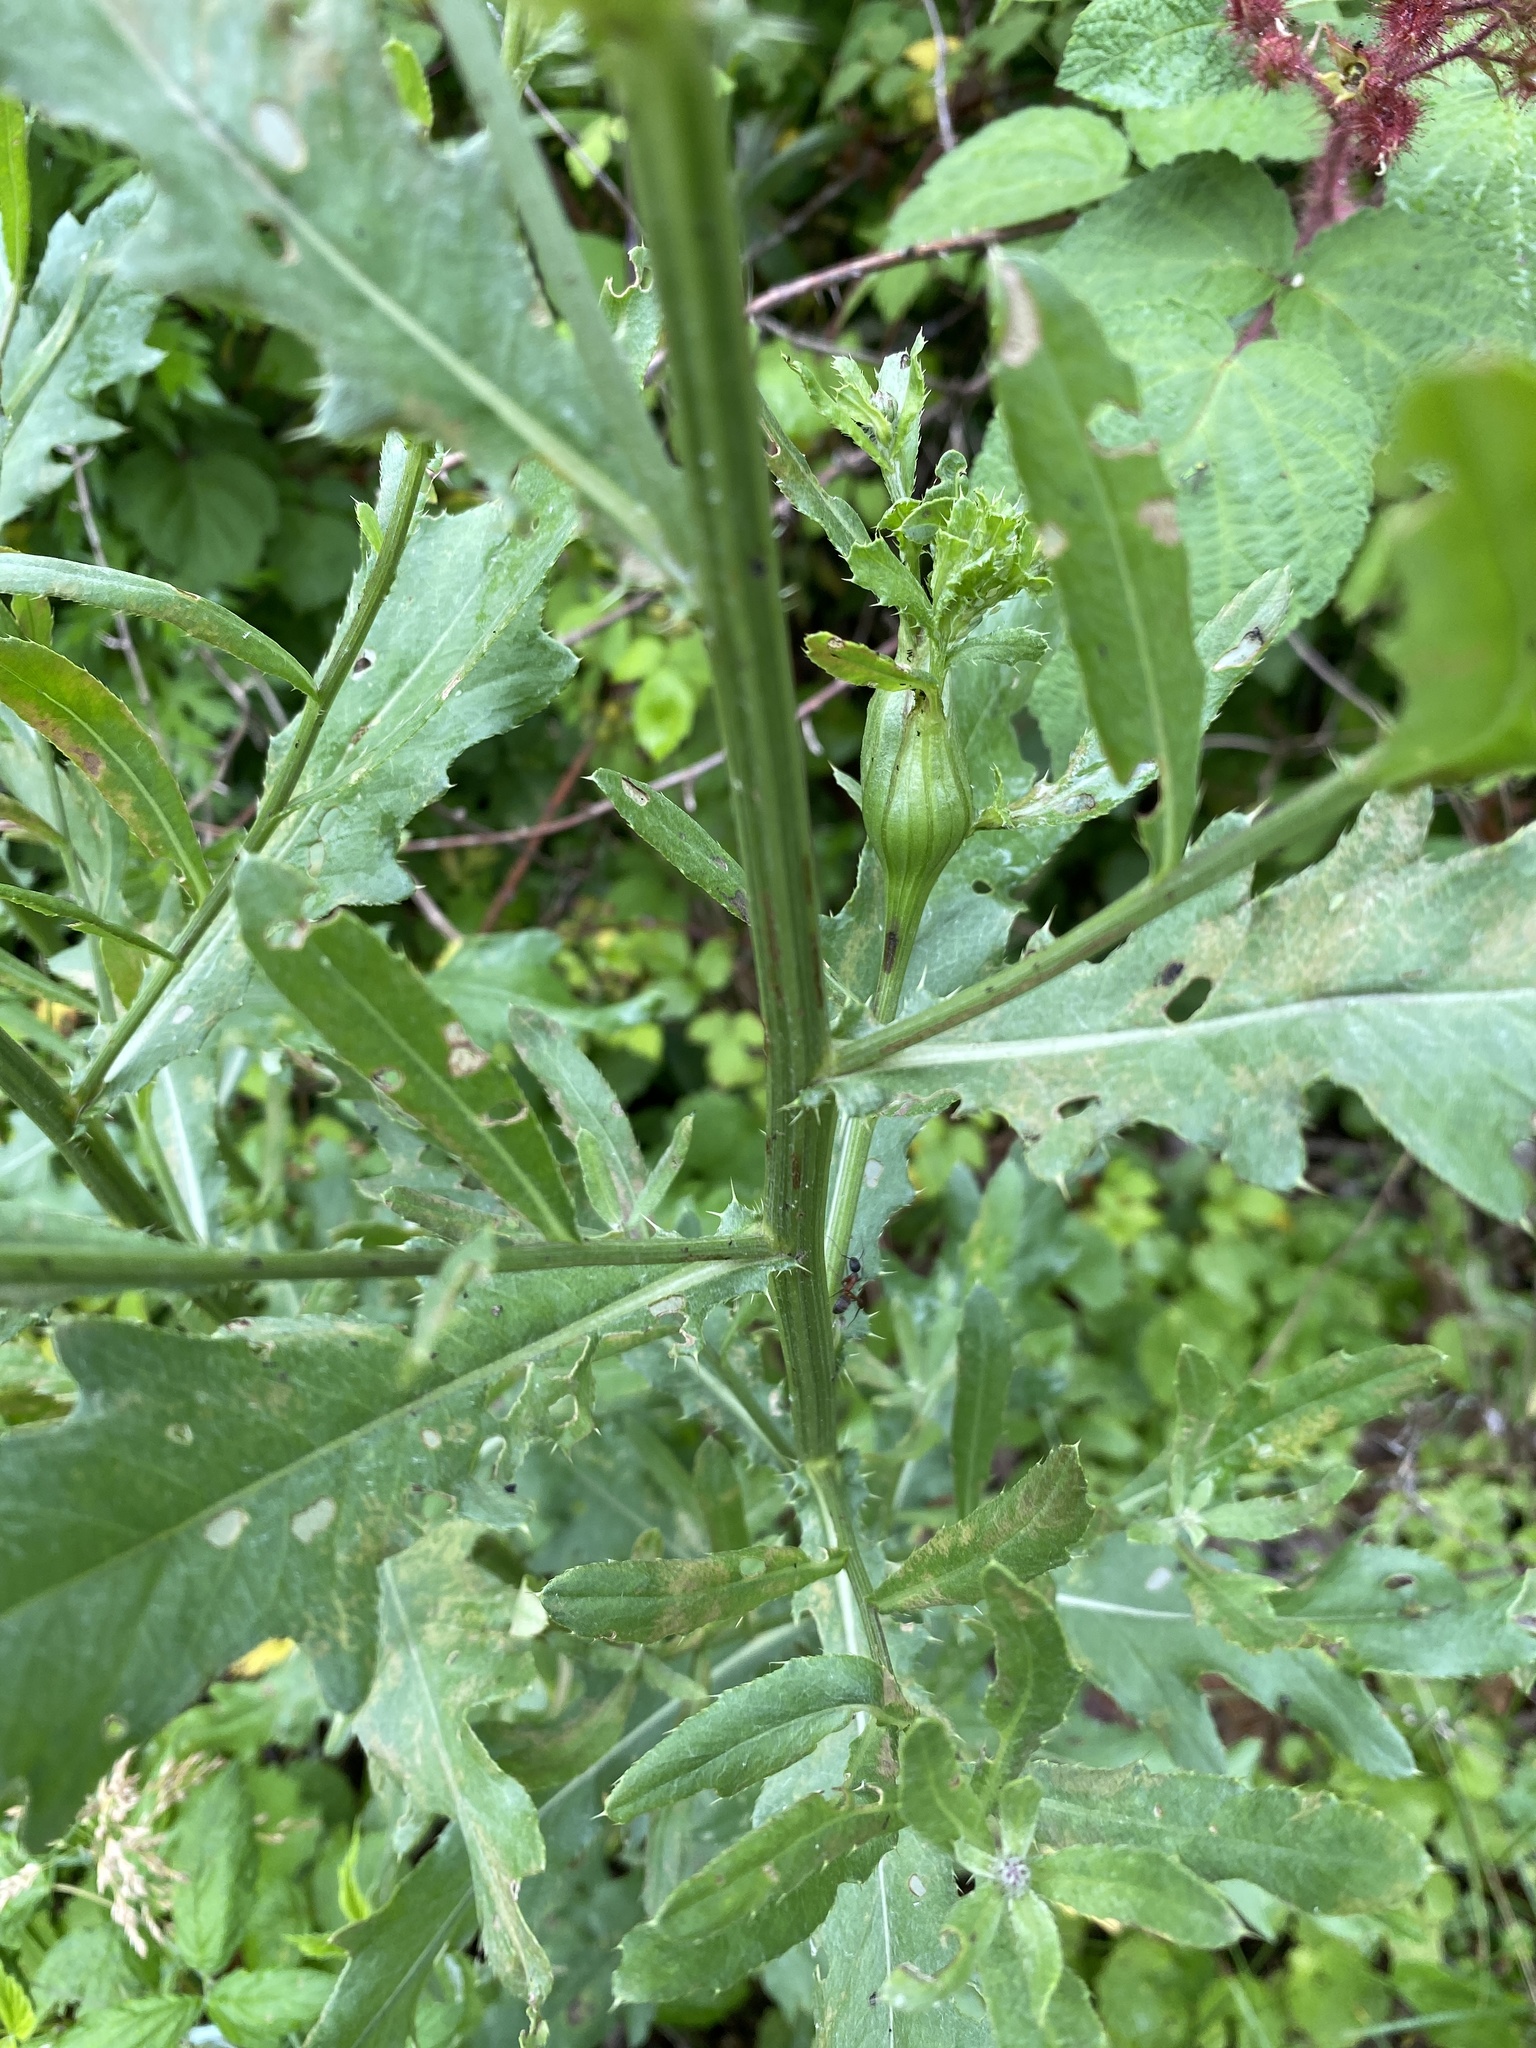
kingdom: Plantae
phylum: Tracheophyta
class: Magnoliopsida
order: Asterales
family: Asteraceae
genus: Cirsium
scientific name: Cirsium arvense
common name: Creeping thistle
